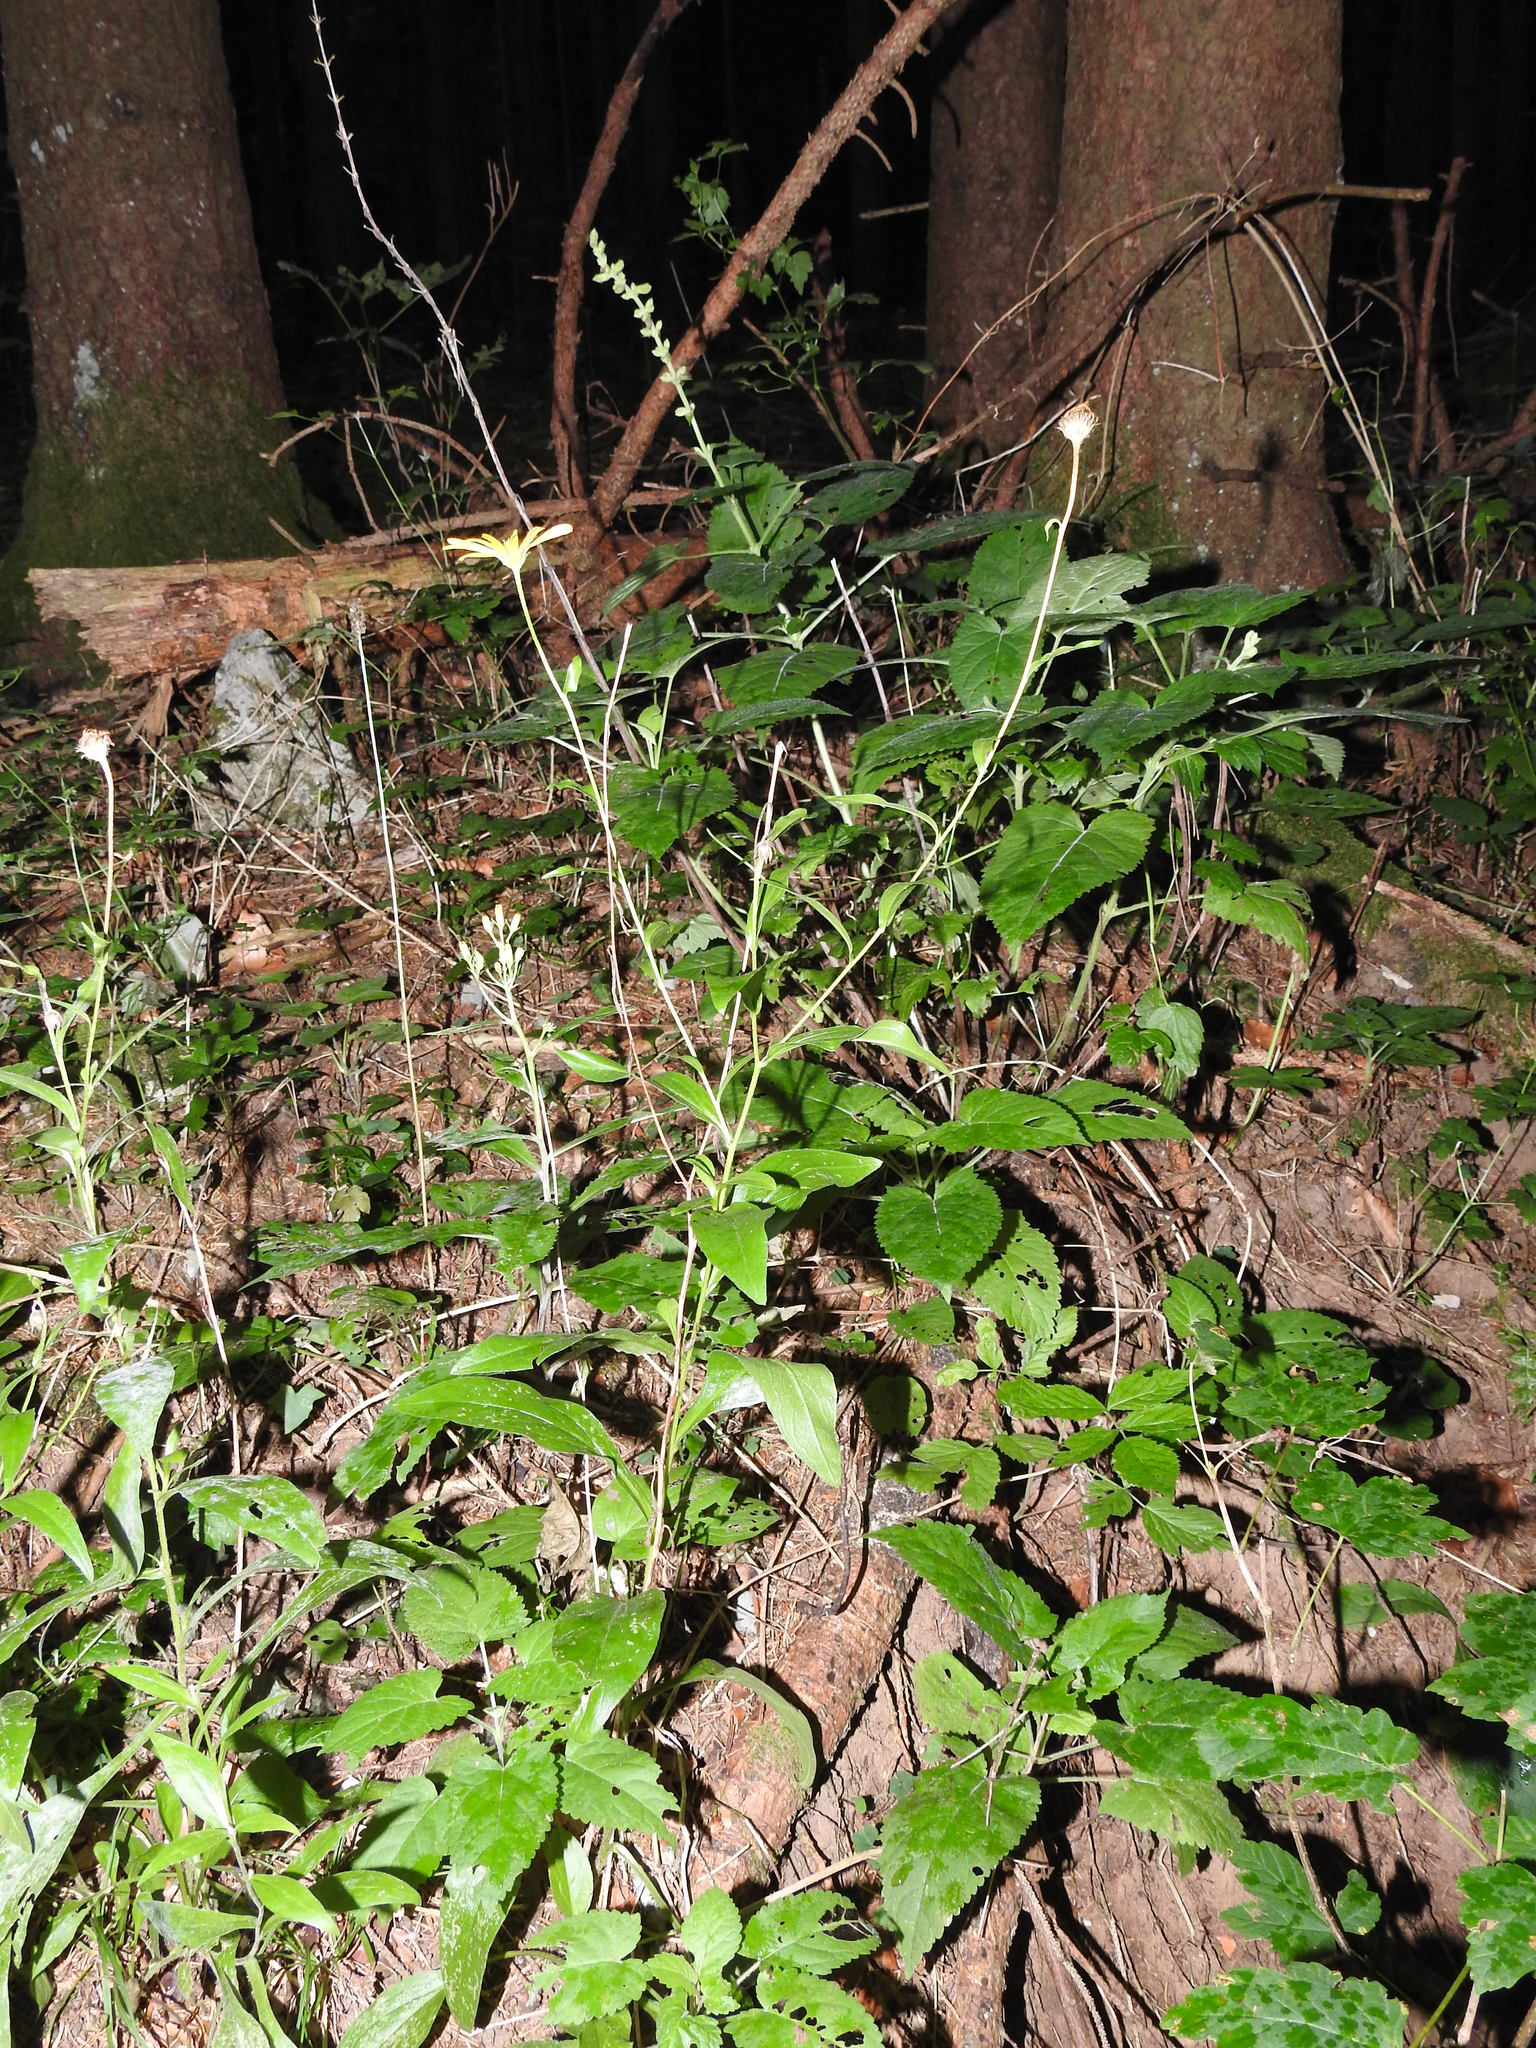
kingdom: Plantae
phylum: Tracheophyta
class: Magnoliopsida
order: Asterales
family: Asteraceae
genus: Buphthalmum
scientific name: Buphthalmum salicifolium
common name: Willow-leaved yellow-oxeye
